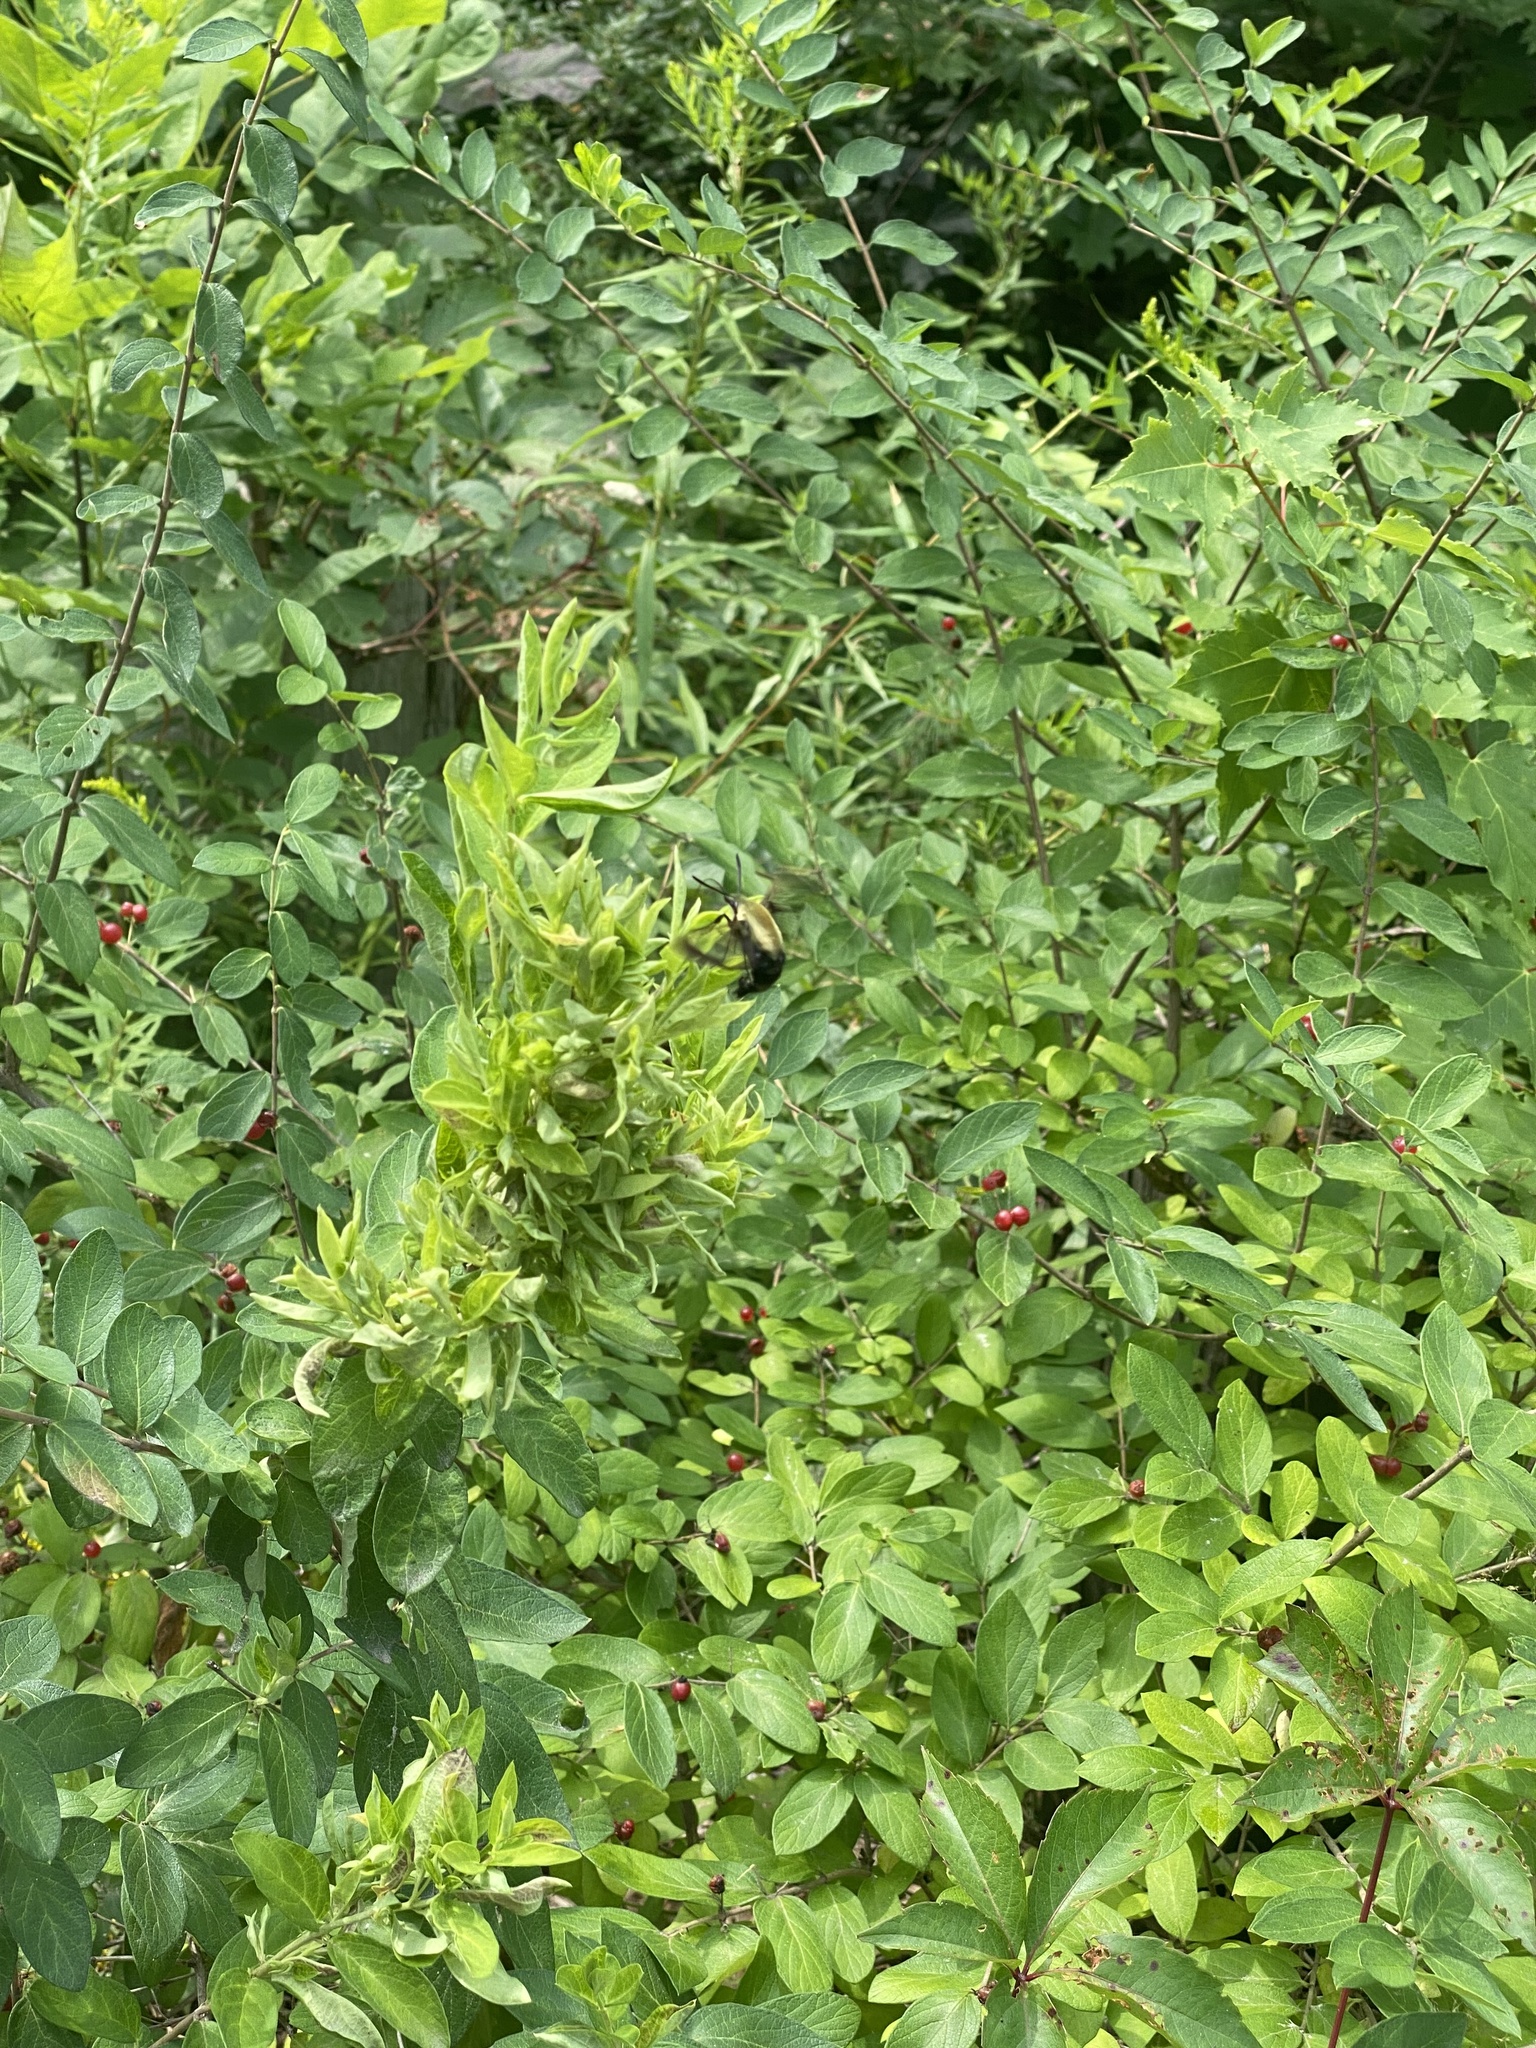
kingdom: Animalia
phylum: Arthropoda
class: Insecta
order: Lepidoptera
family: Sphingidae
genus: Hemaris
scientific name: Hemaris diffinis
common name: Bumblebee moth
